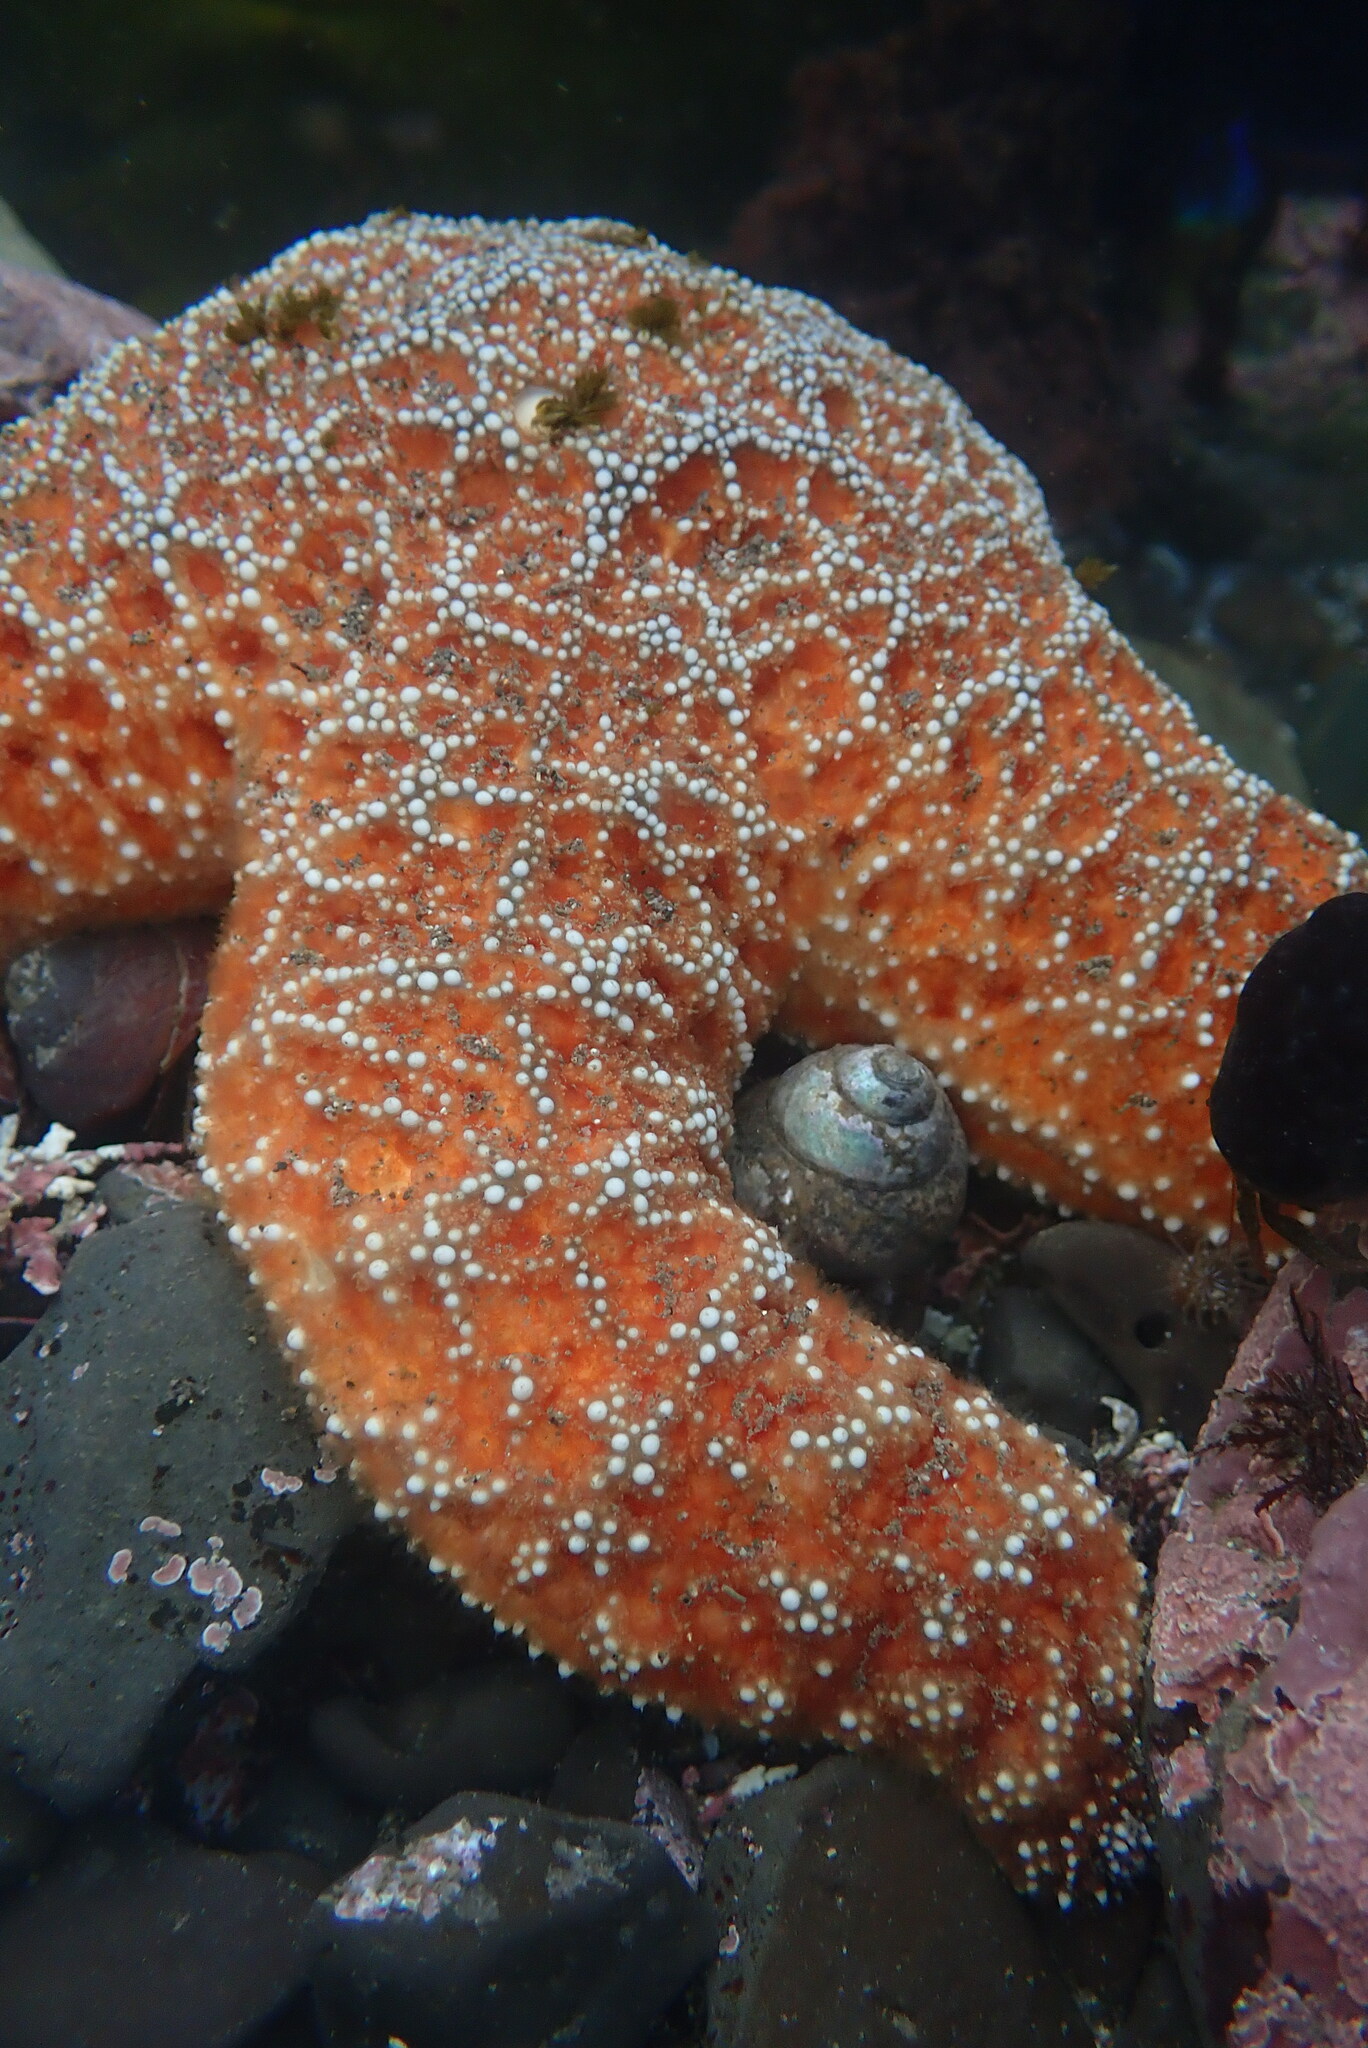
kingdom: Animalia
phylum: Echinodermata
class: Asteroidea
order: Forcipulatida
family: Asteriidae
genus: Pisaster
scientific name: Pisaster ochraceus
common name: Ochre stars
